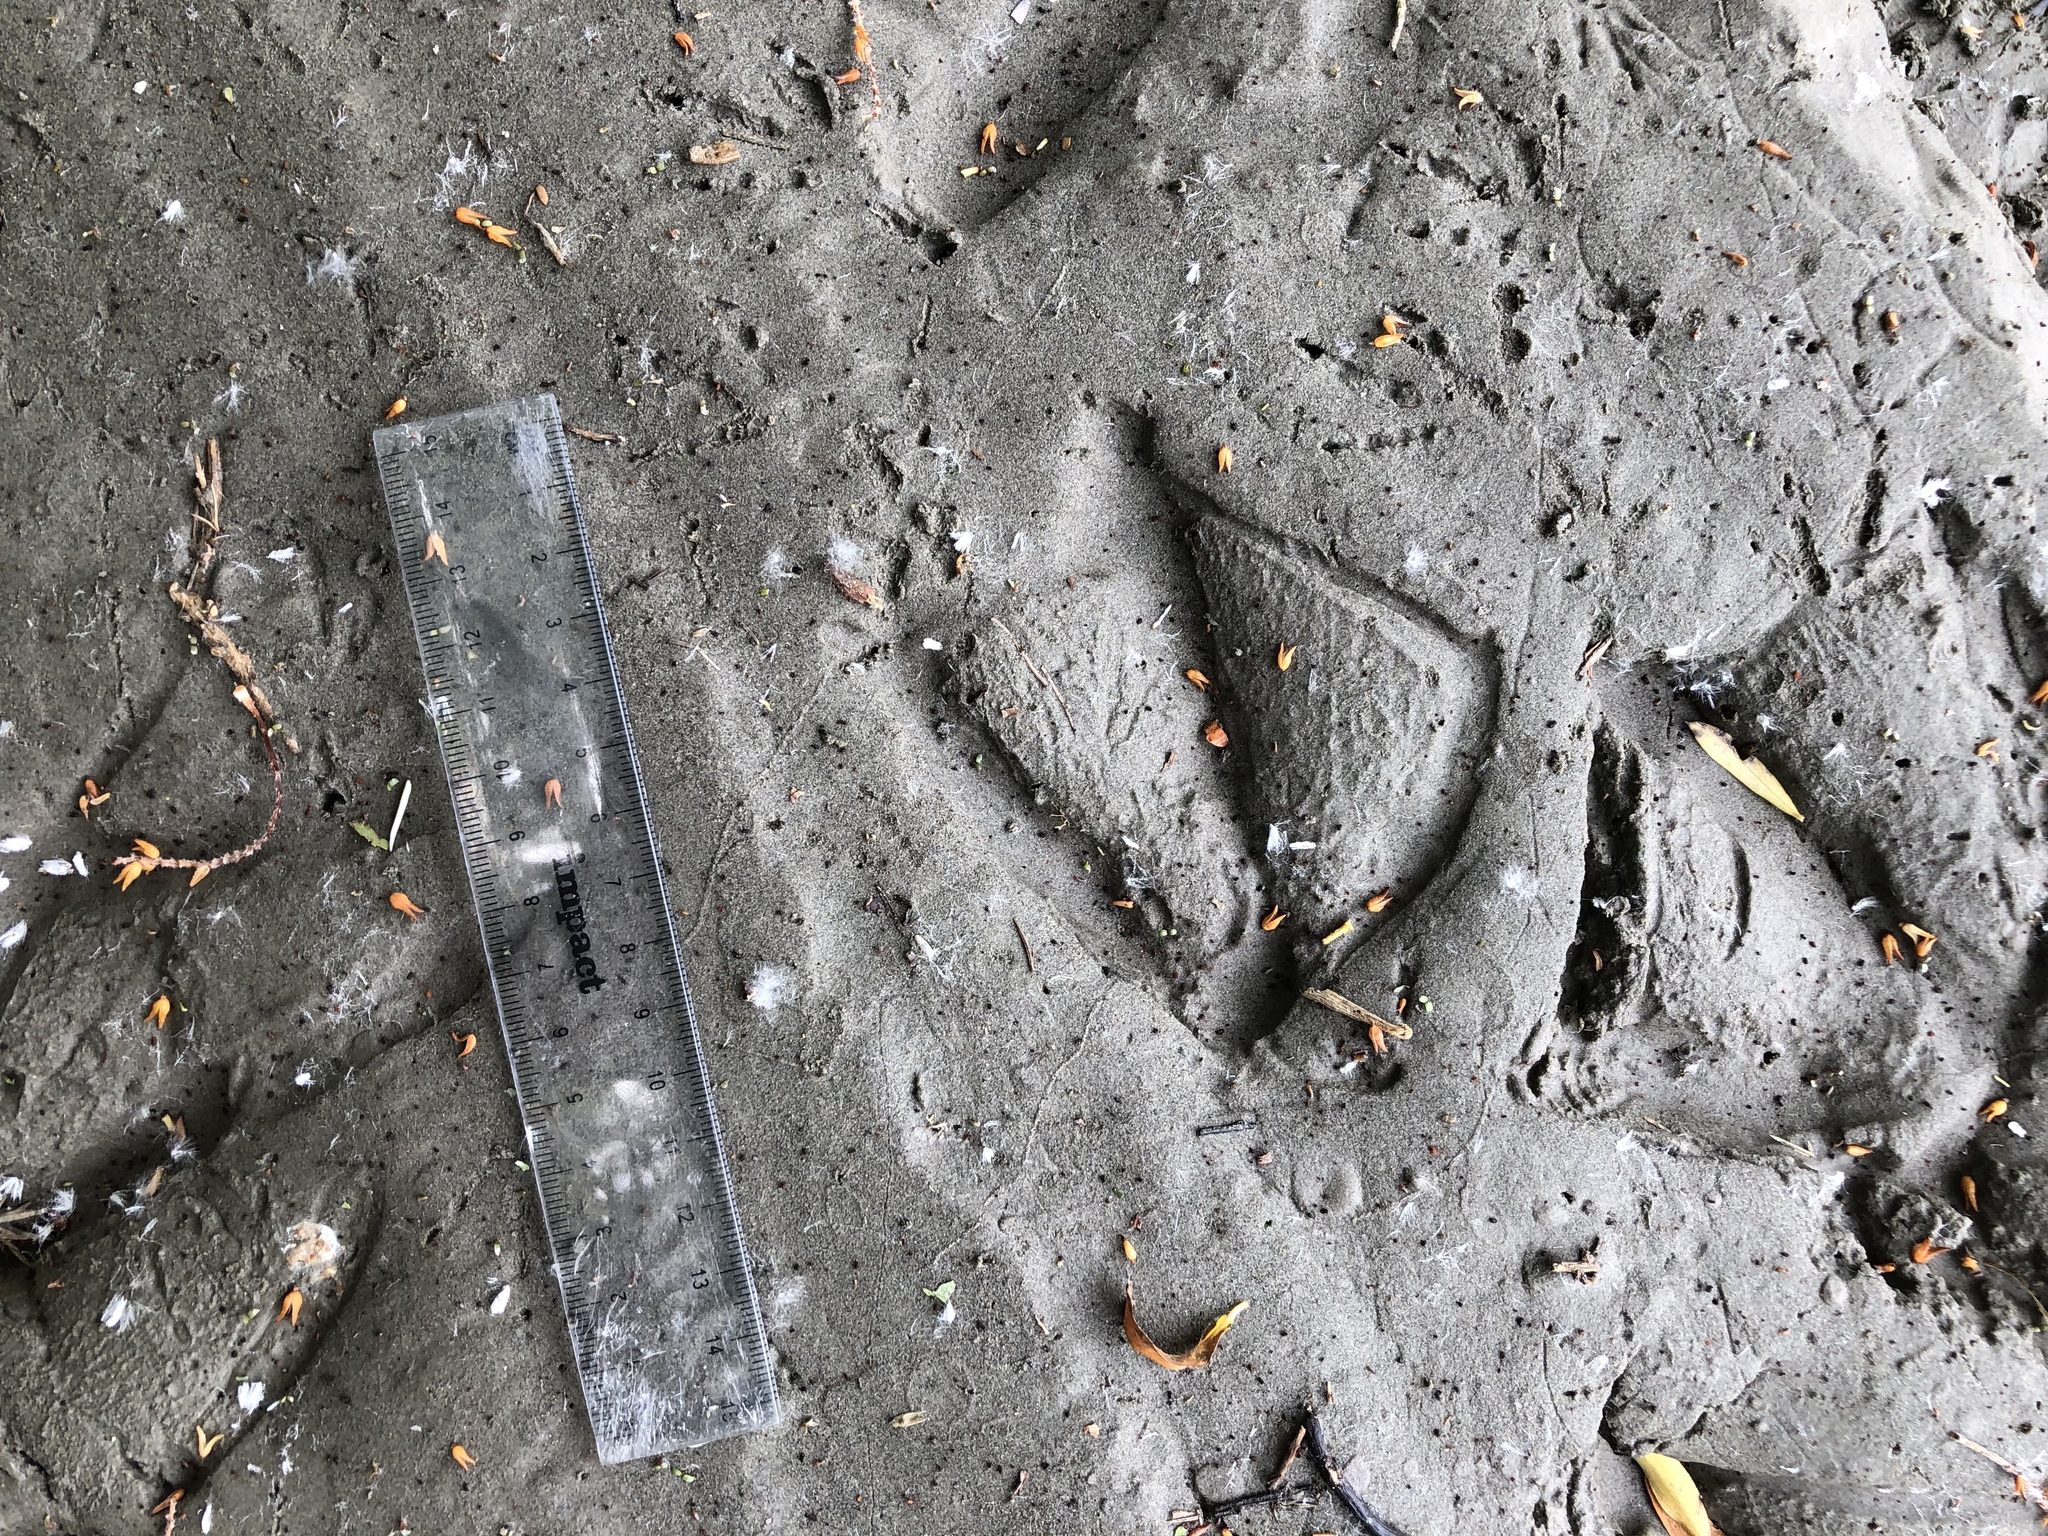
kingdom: Animalia
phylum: Chordata
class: Aves
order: Anseriformes
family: Anatidae
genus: Branta
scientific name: Branta canadensis
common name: Canada goose
